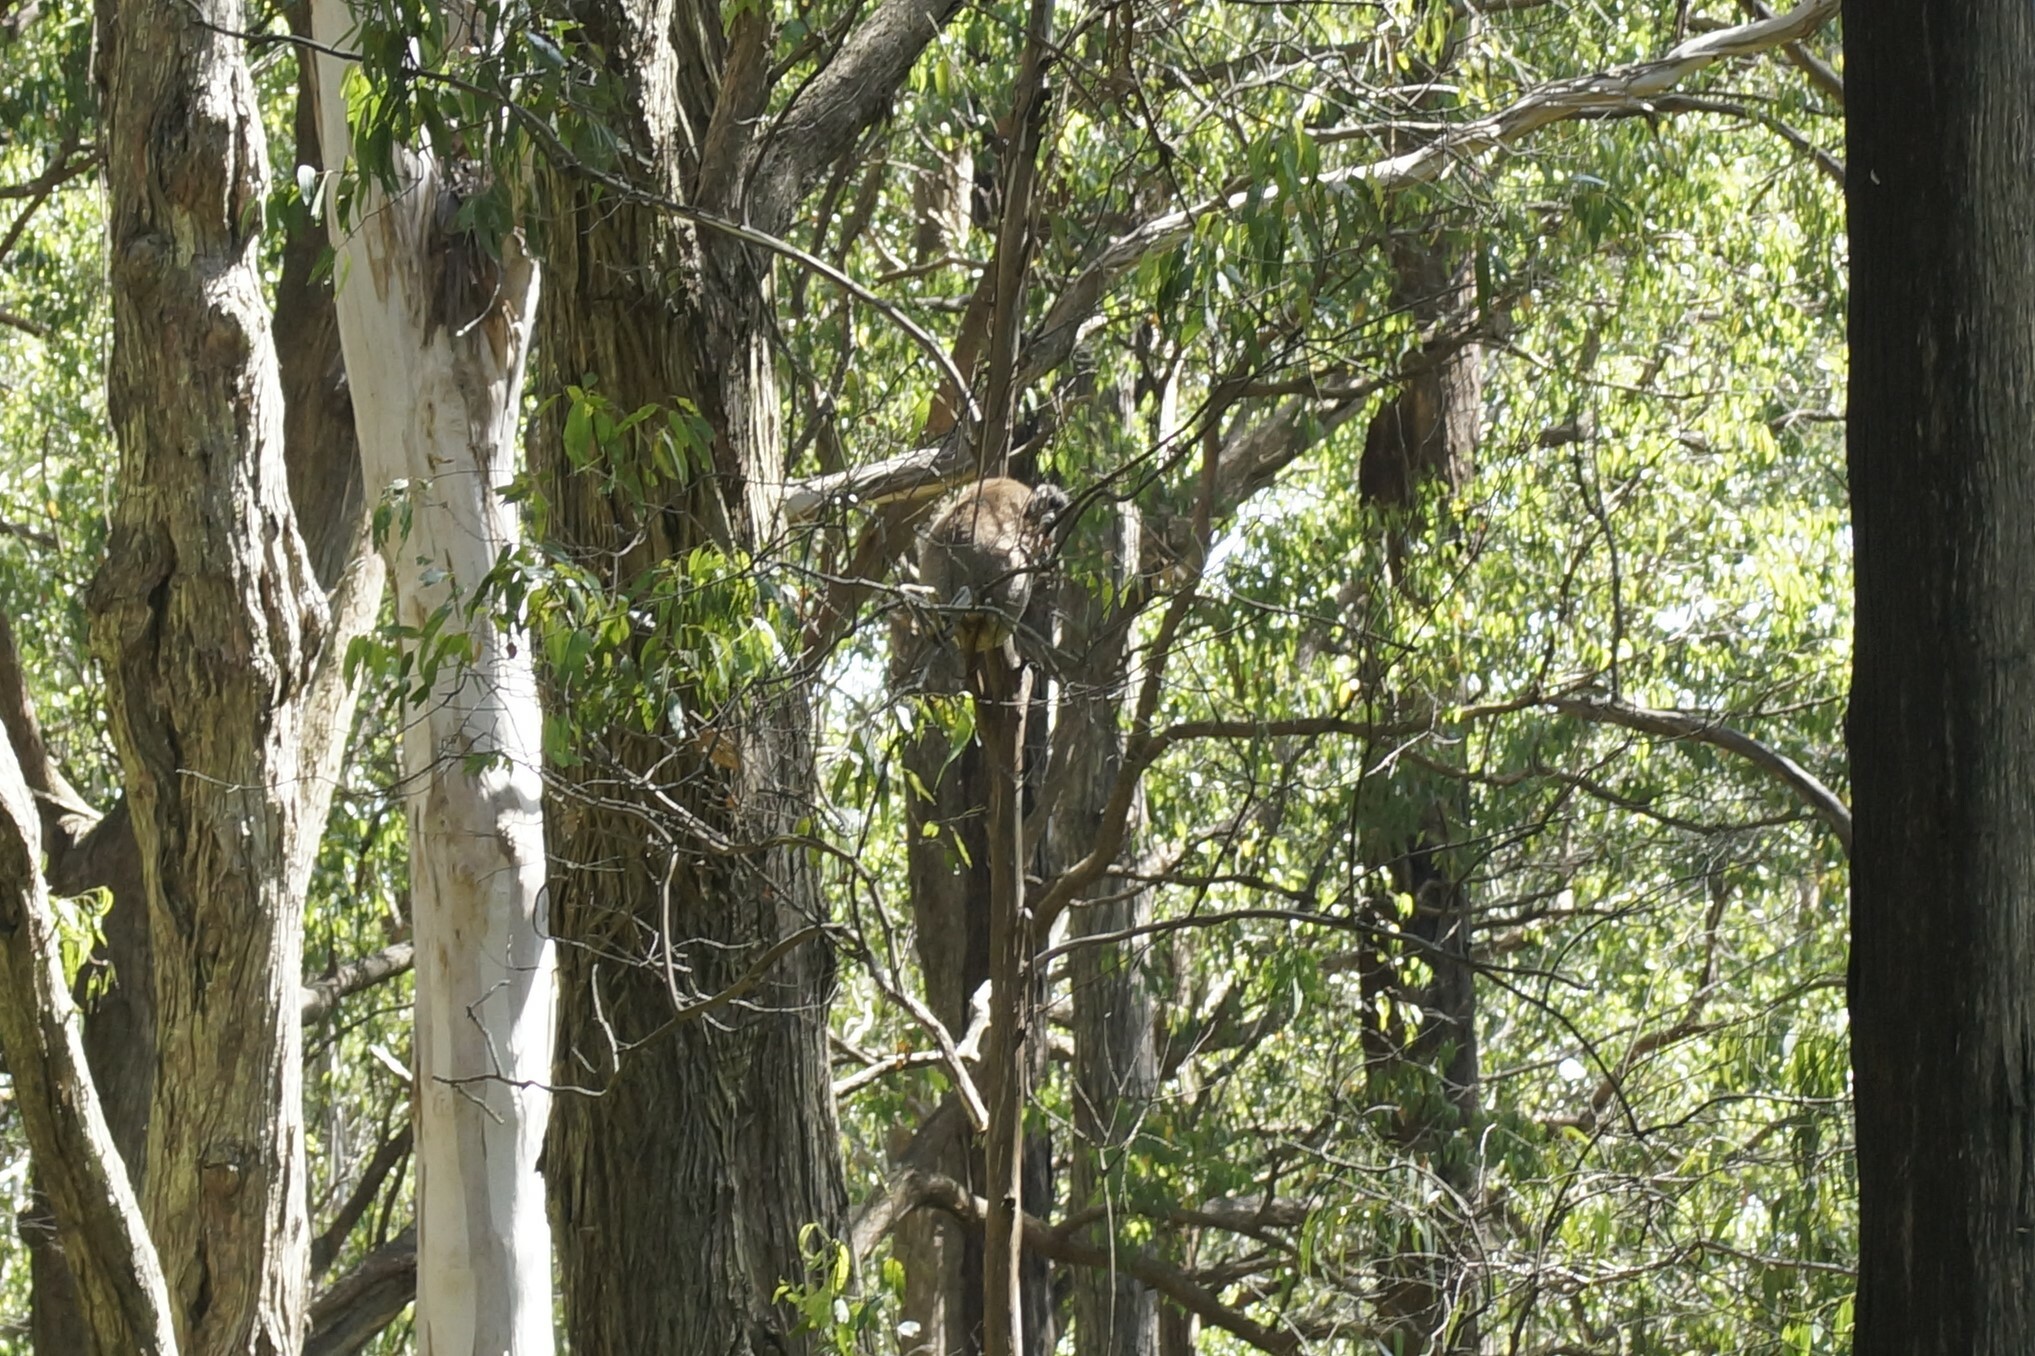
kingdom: Animalia
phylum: Chordata
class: Mammalia
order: Diprotodontia
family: Phascolarctidae
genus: Phascolarctos
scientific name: Phascolarctos cinereus
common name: Koala
